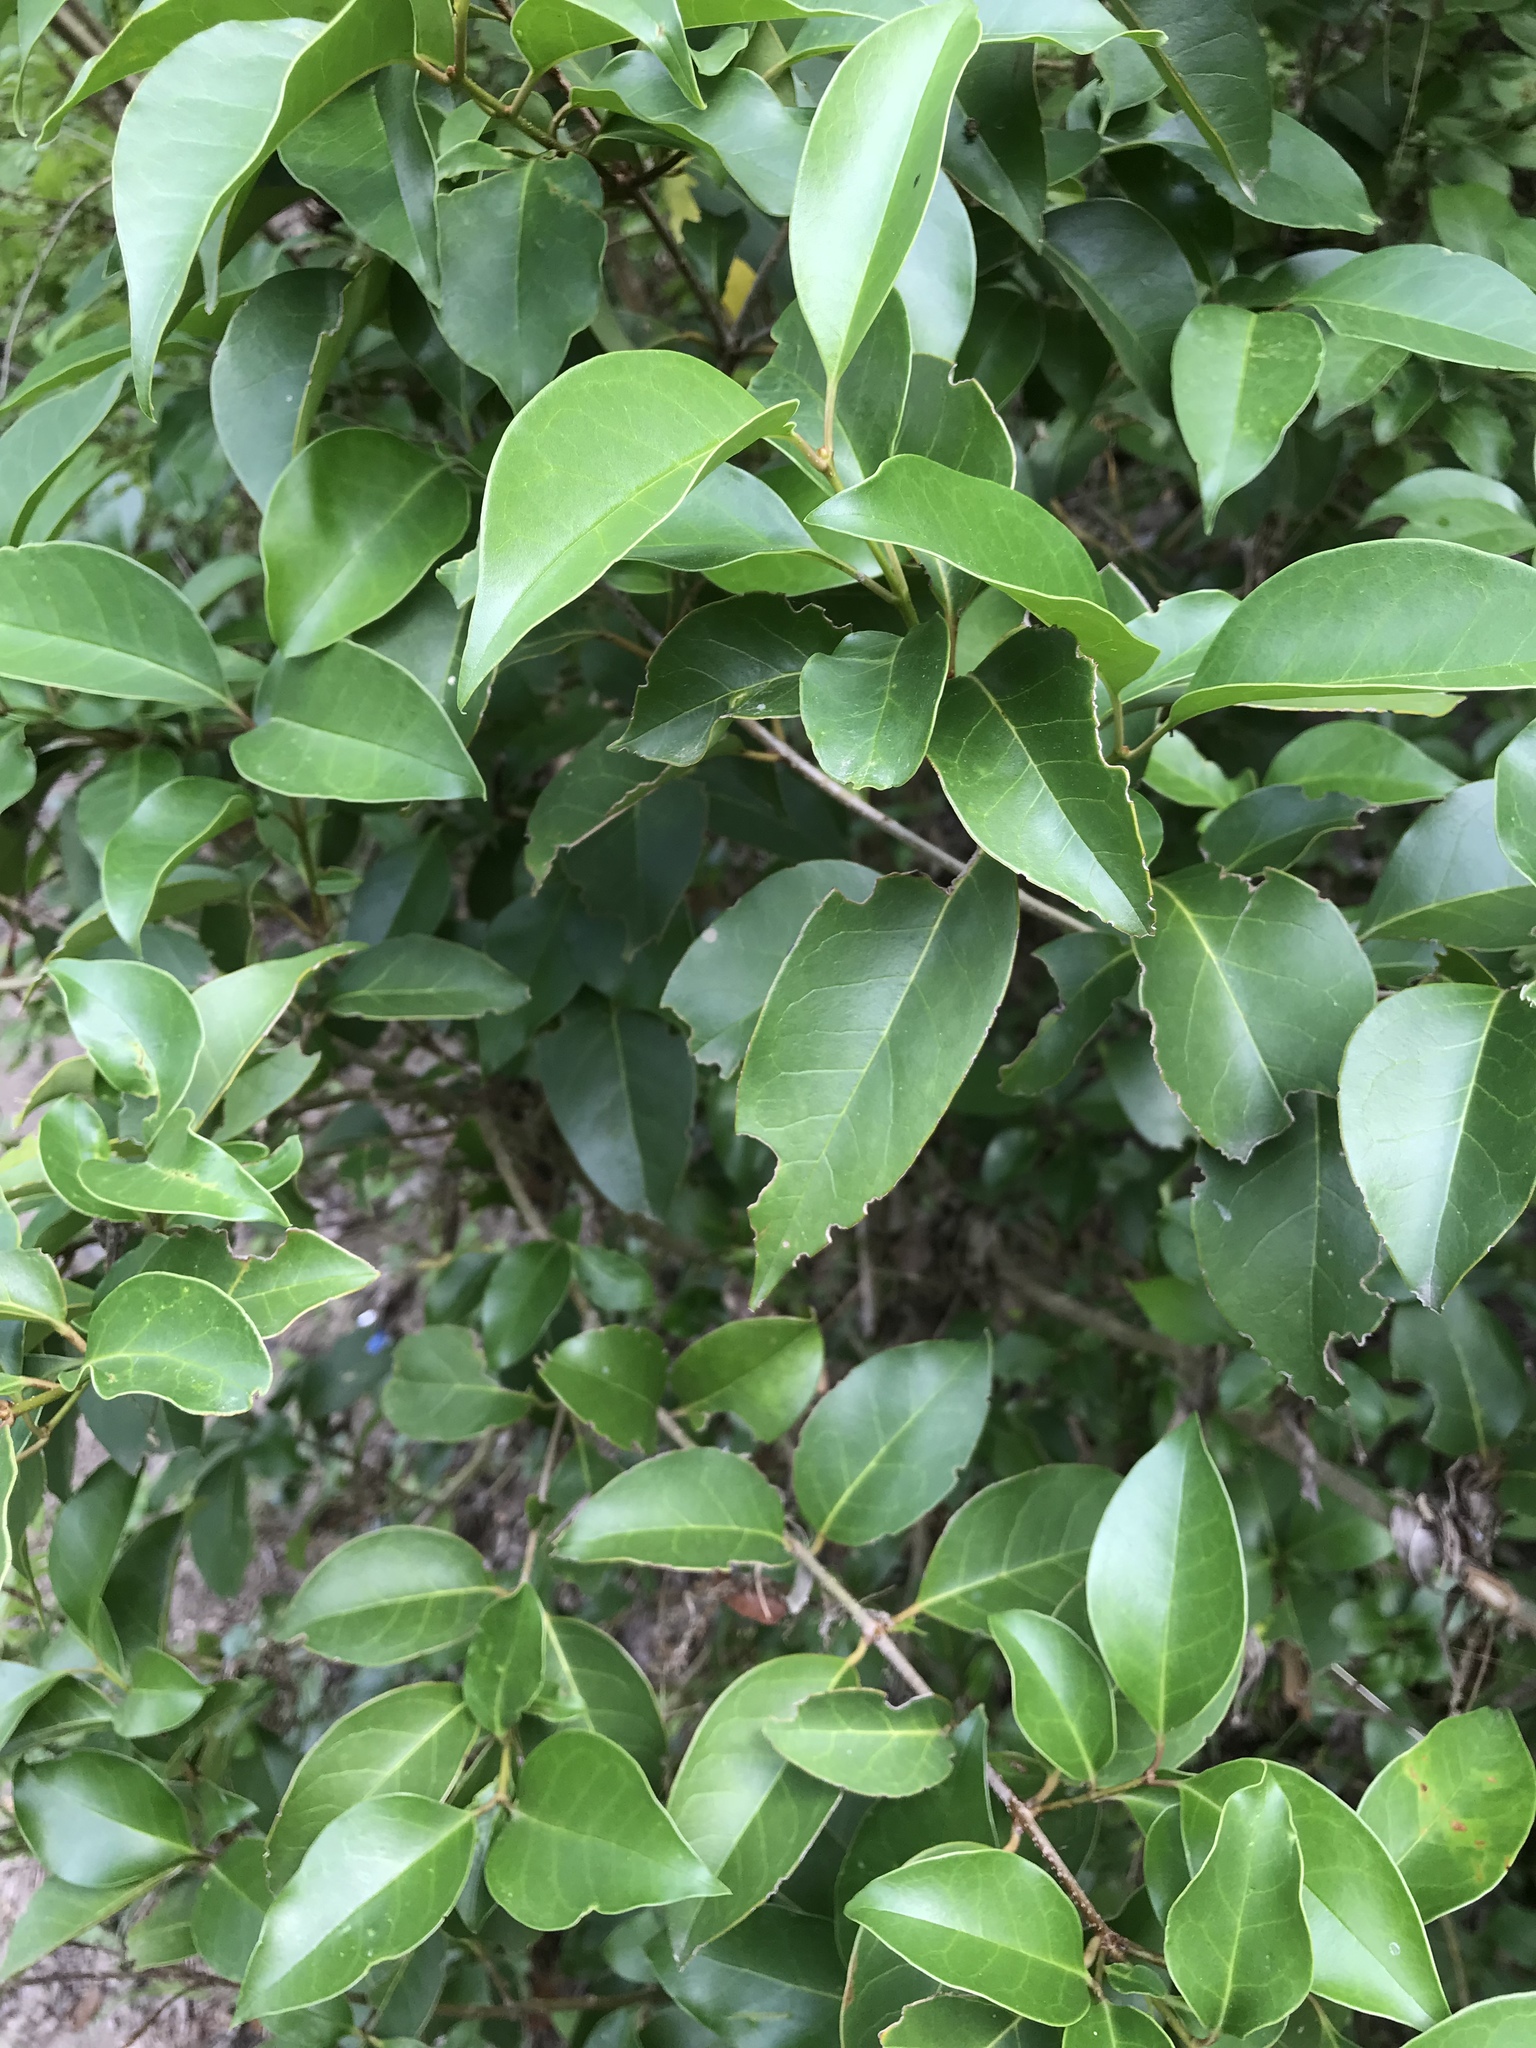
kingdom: Plantae
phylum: Tracheophyta
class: Magnoliopsida
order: Lamiales
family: Oleaceae
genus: Ligustrum
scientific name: Ligustrum lucidum
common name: Glossy privet
